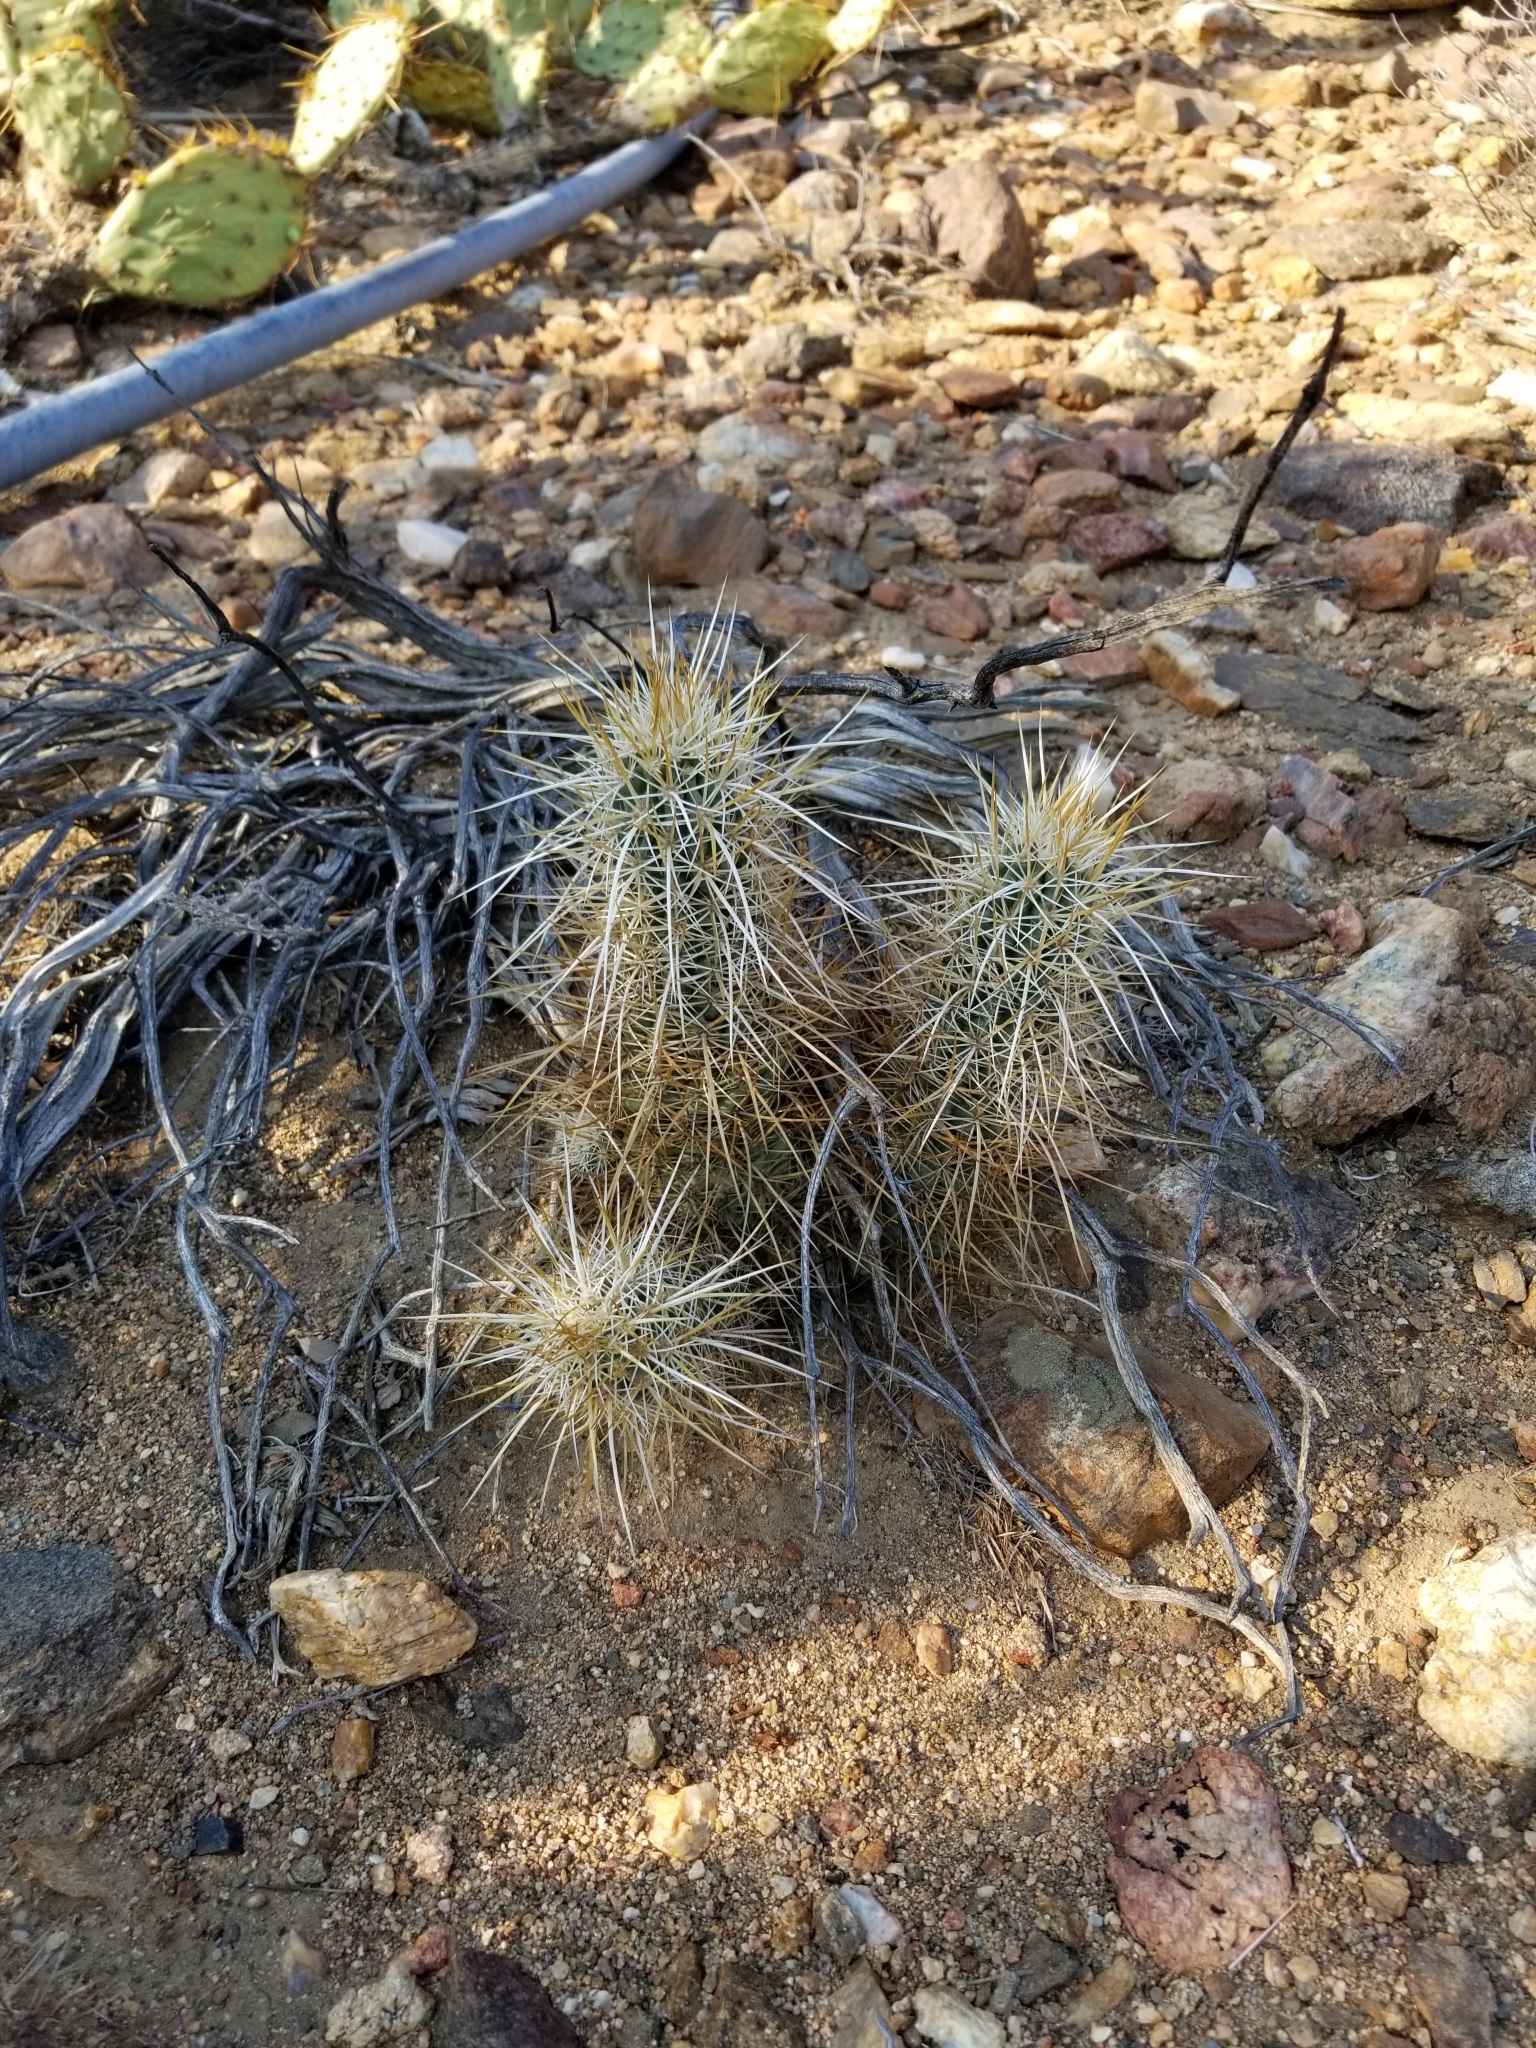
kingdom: Plantae
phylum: Tracheophyta
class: Magnoliopsida
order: Caryophyllales
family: Cactaceae
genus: Echinocereus
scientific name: Echinocereus engelmannii
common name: Engelmann's hedgehog cactus
